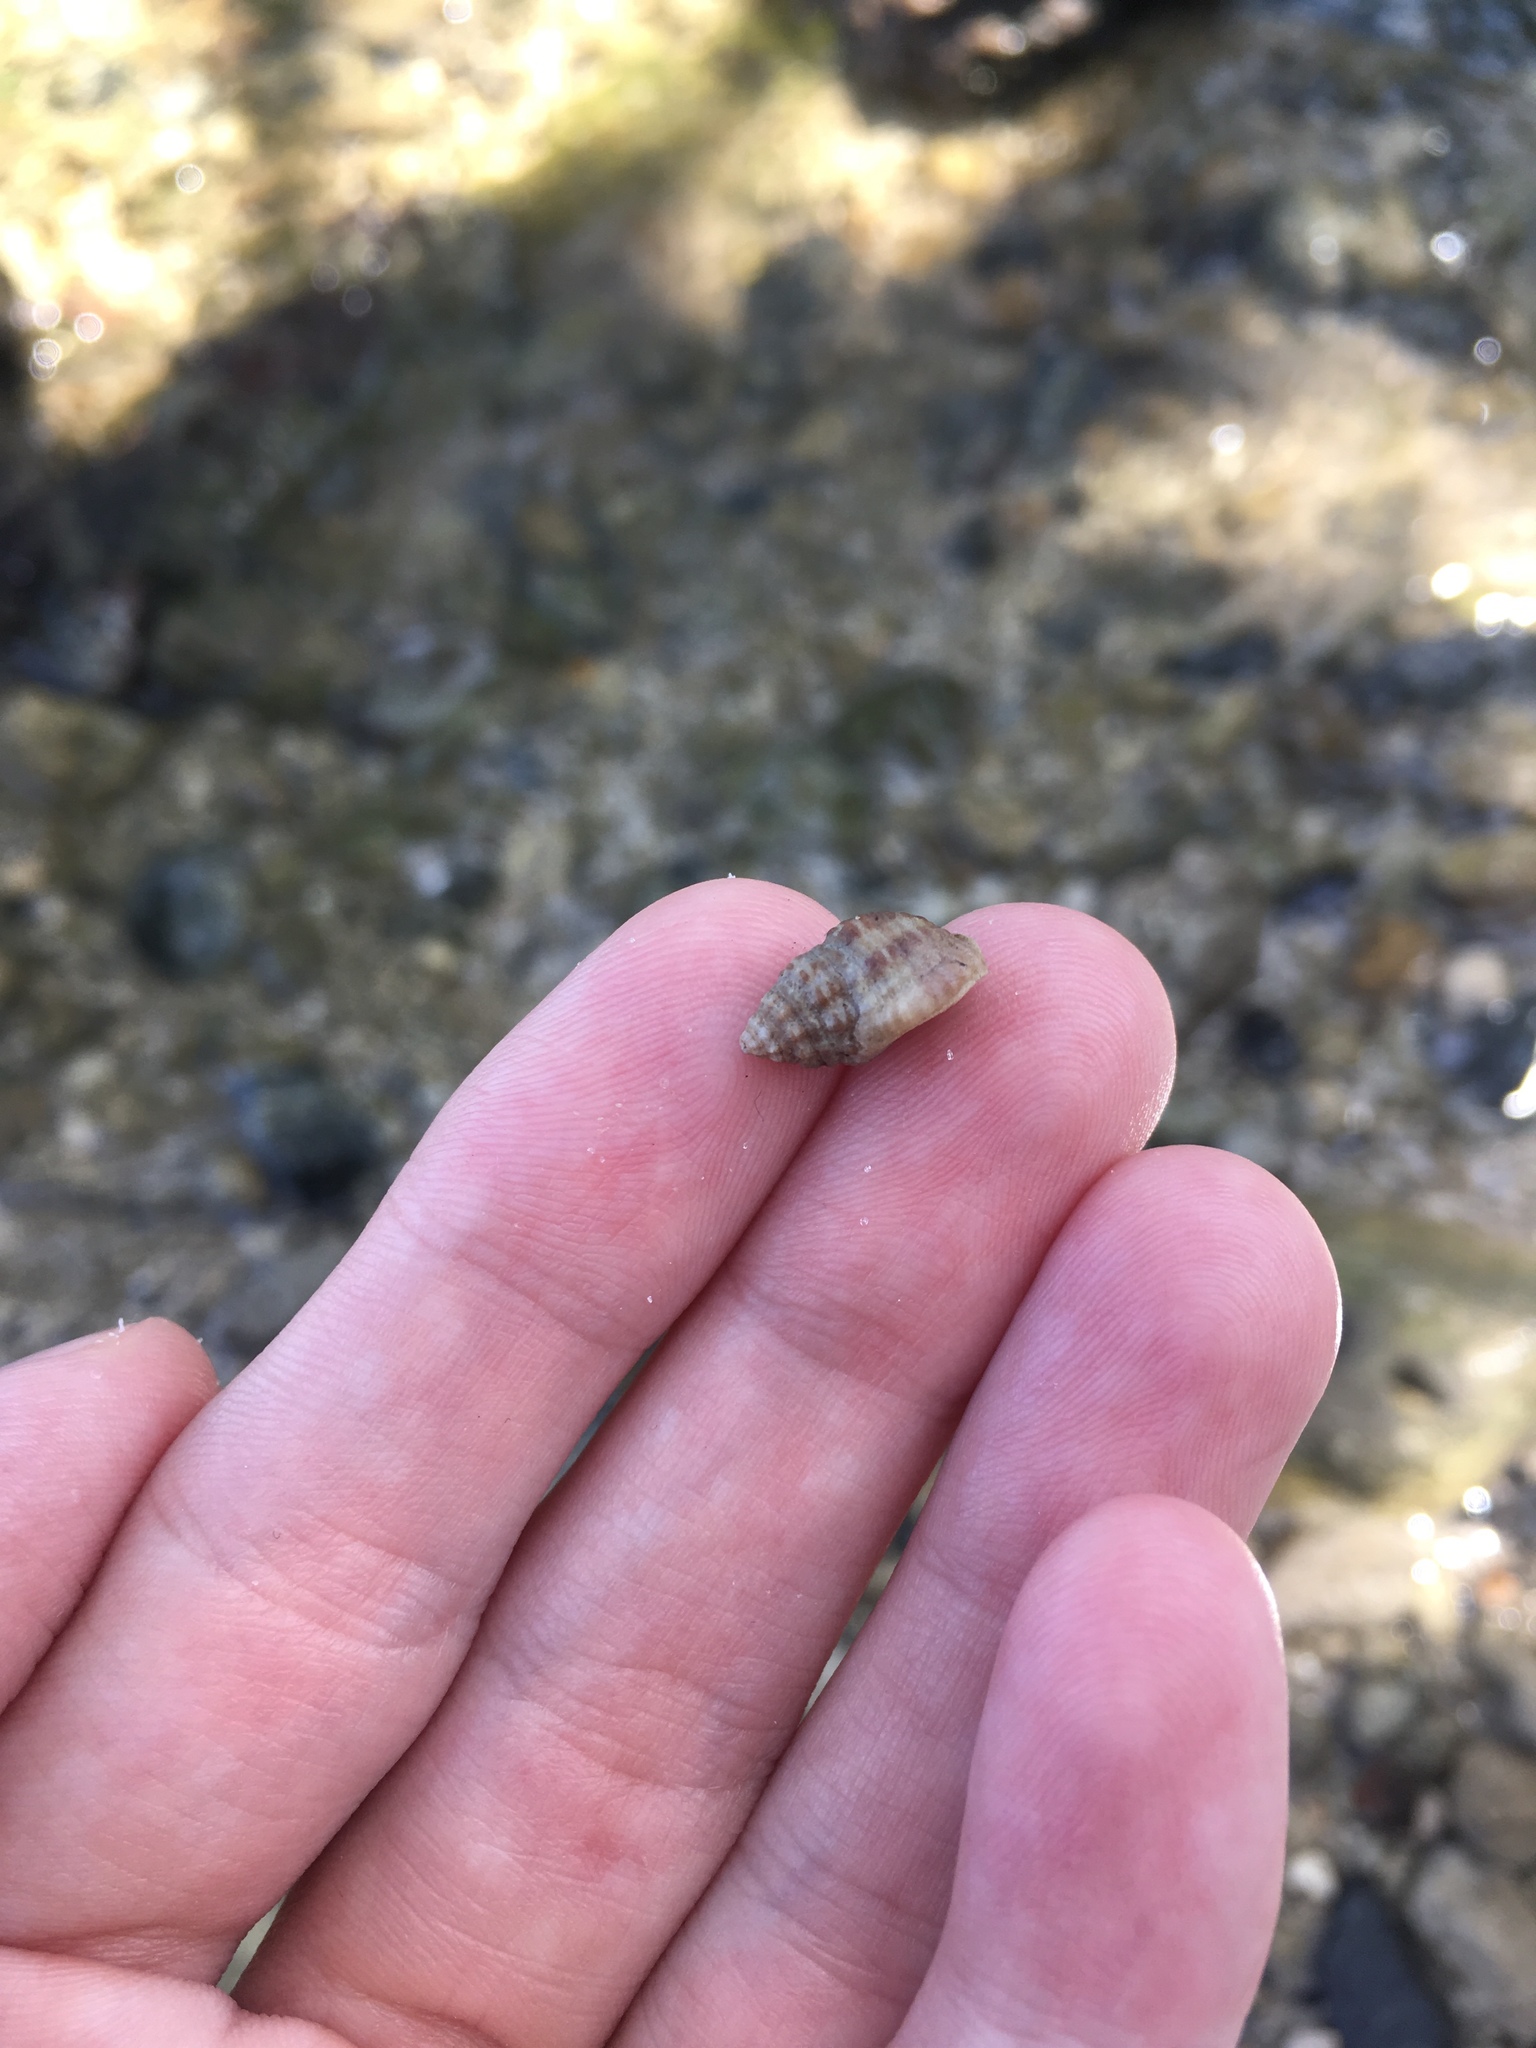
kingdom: Animalia
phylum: Mollusca
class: Gastropoda
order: Neogastropoda
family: Nassariidae
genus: Phrontis
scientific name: Phrontis vibex
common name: Bruised nassa
